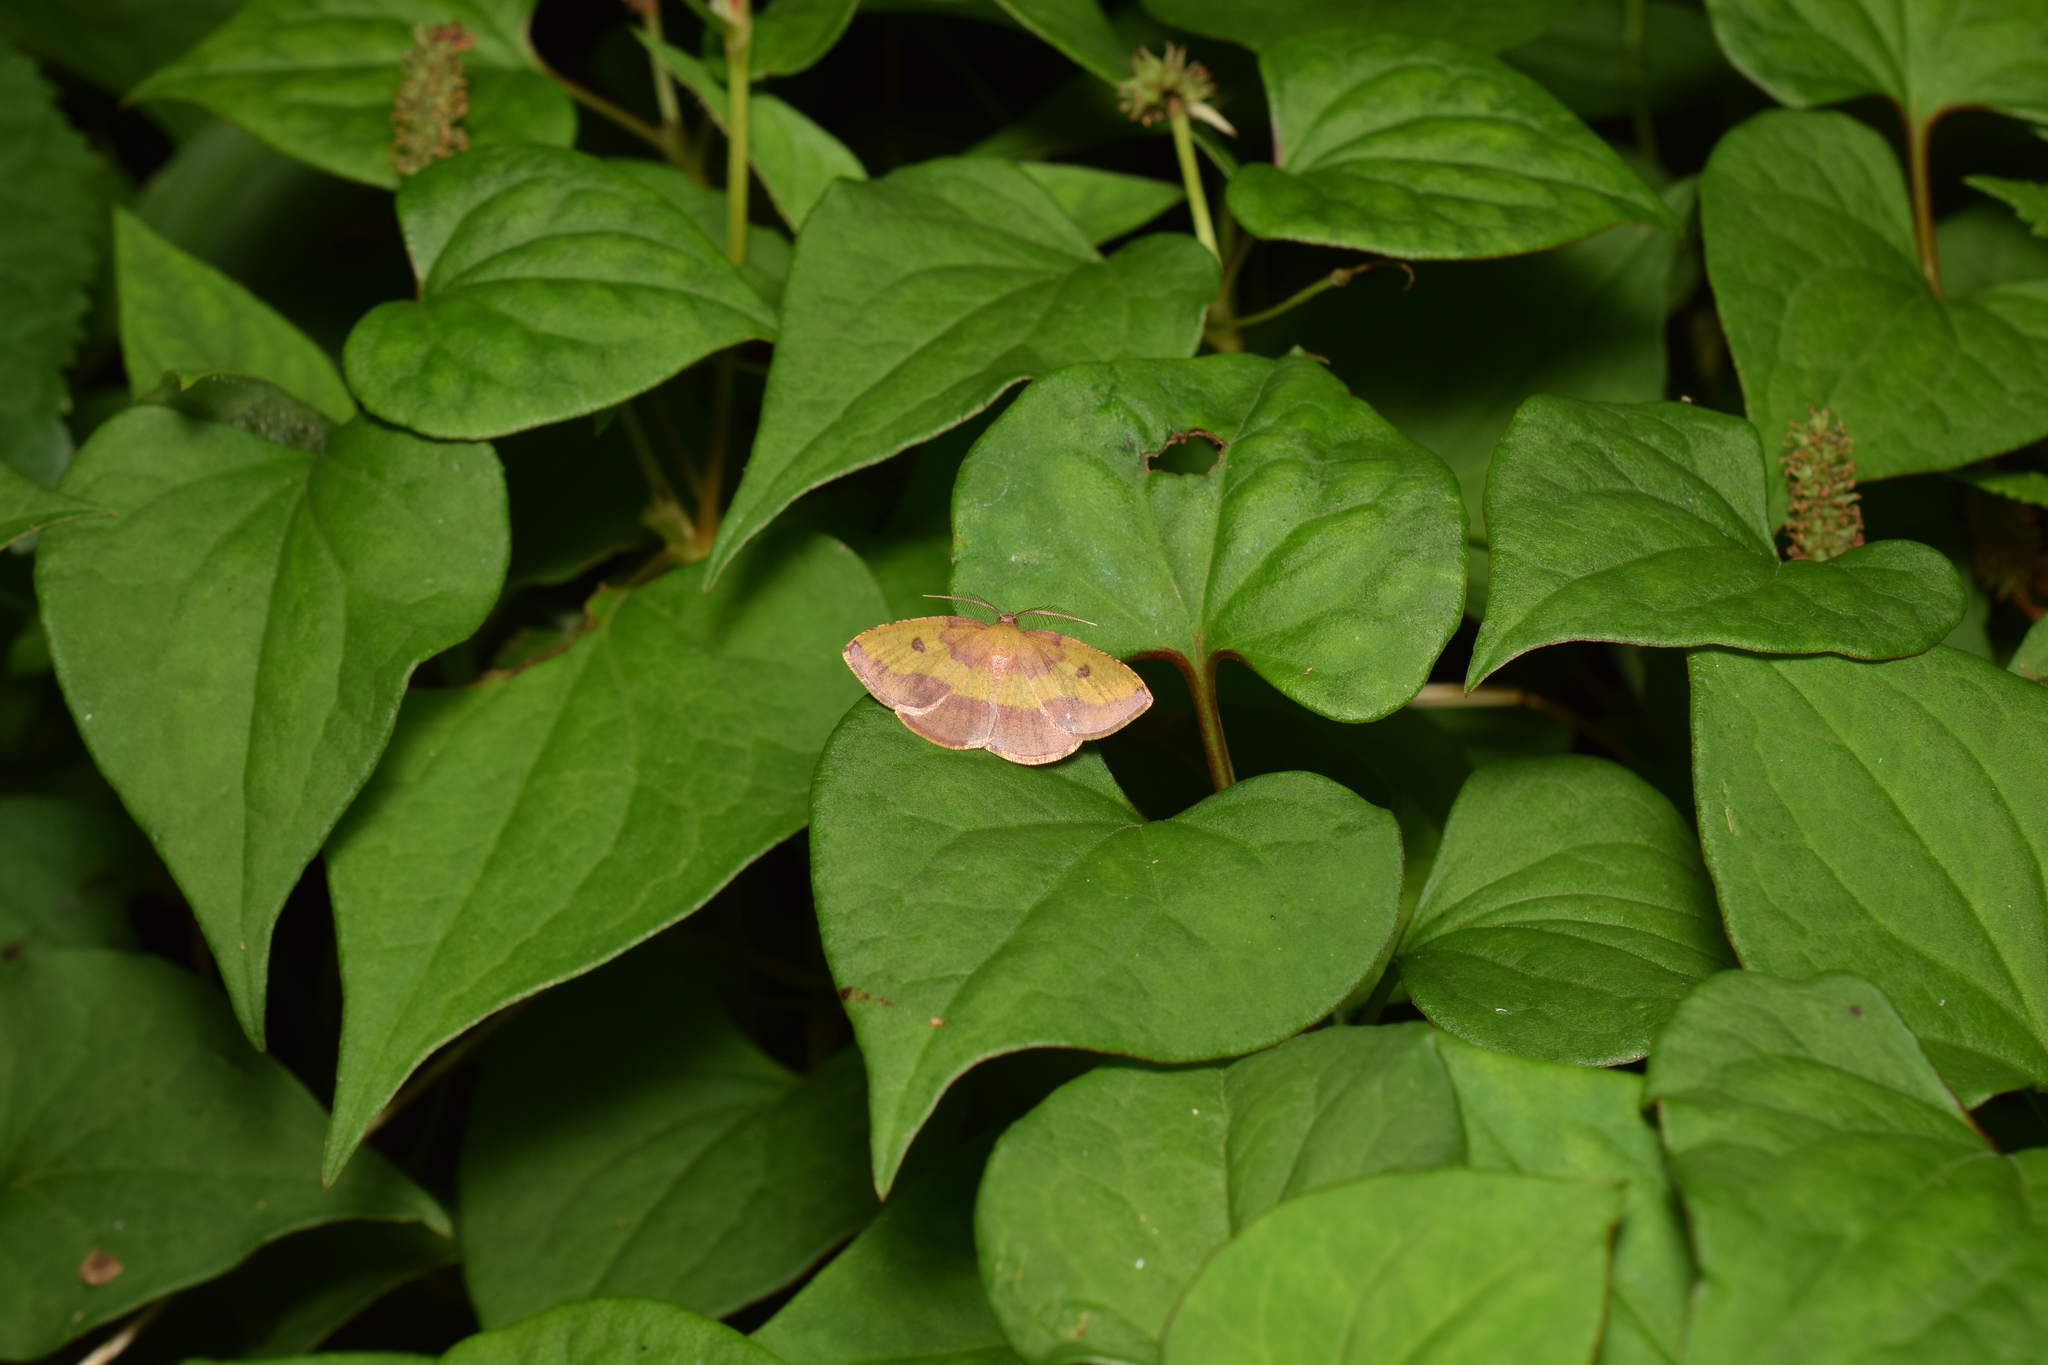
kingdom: Animalia
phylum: Arthropoda
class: Insecta
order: Lepidoptera
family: Geometridae
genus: Heterolocha
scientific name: Heterolocha aristonaria
